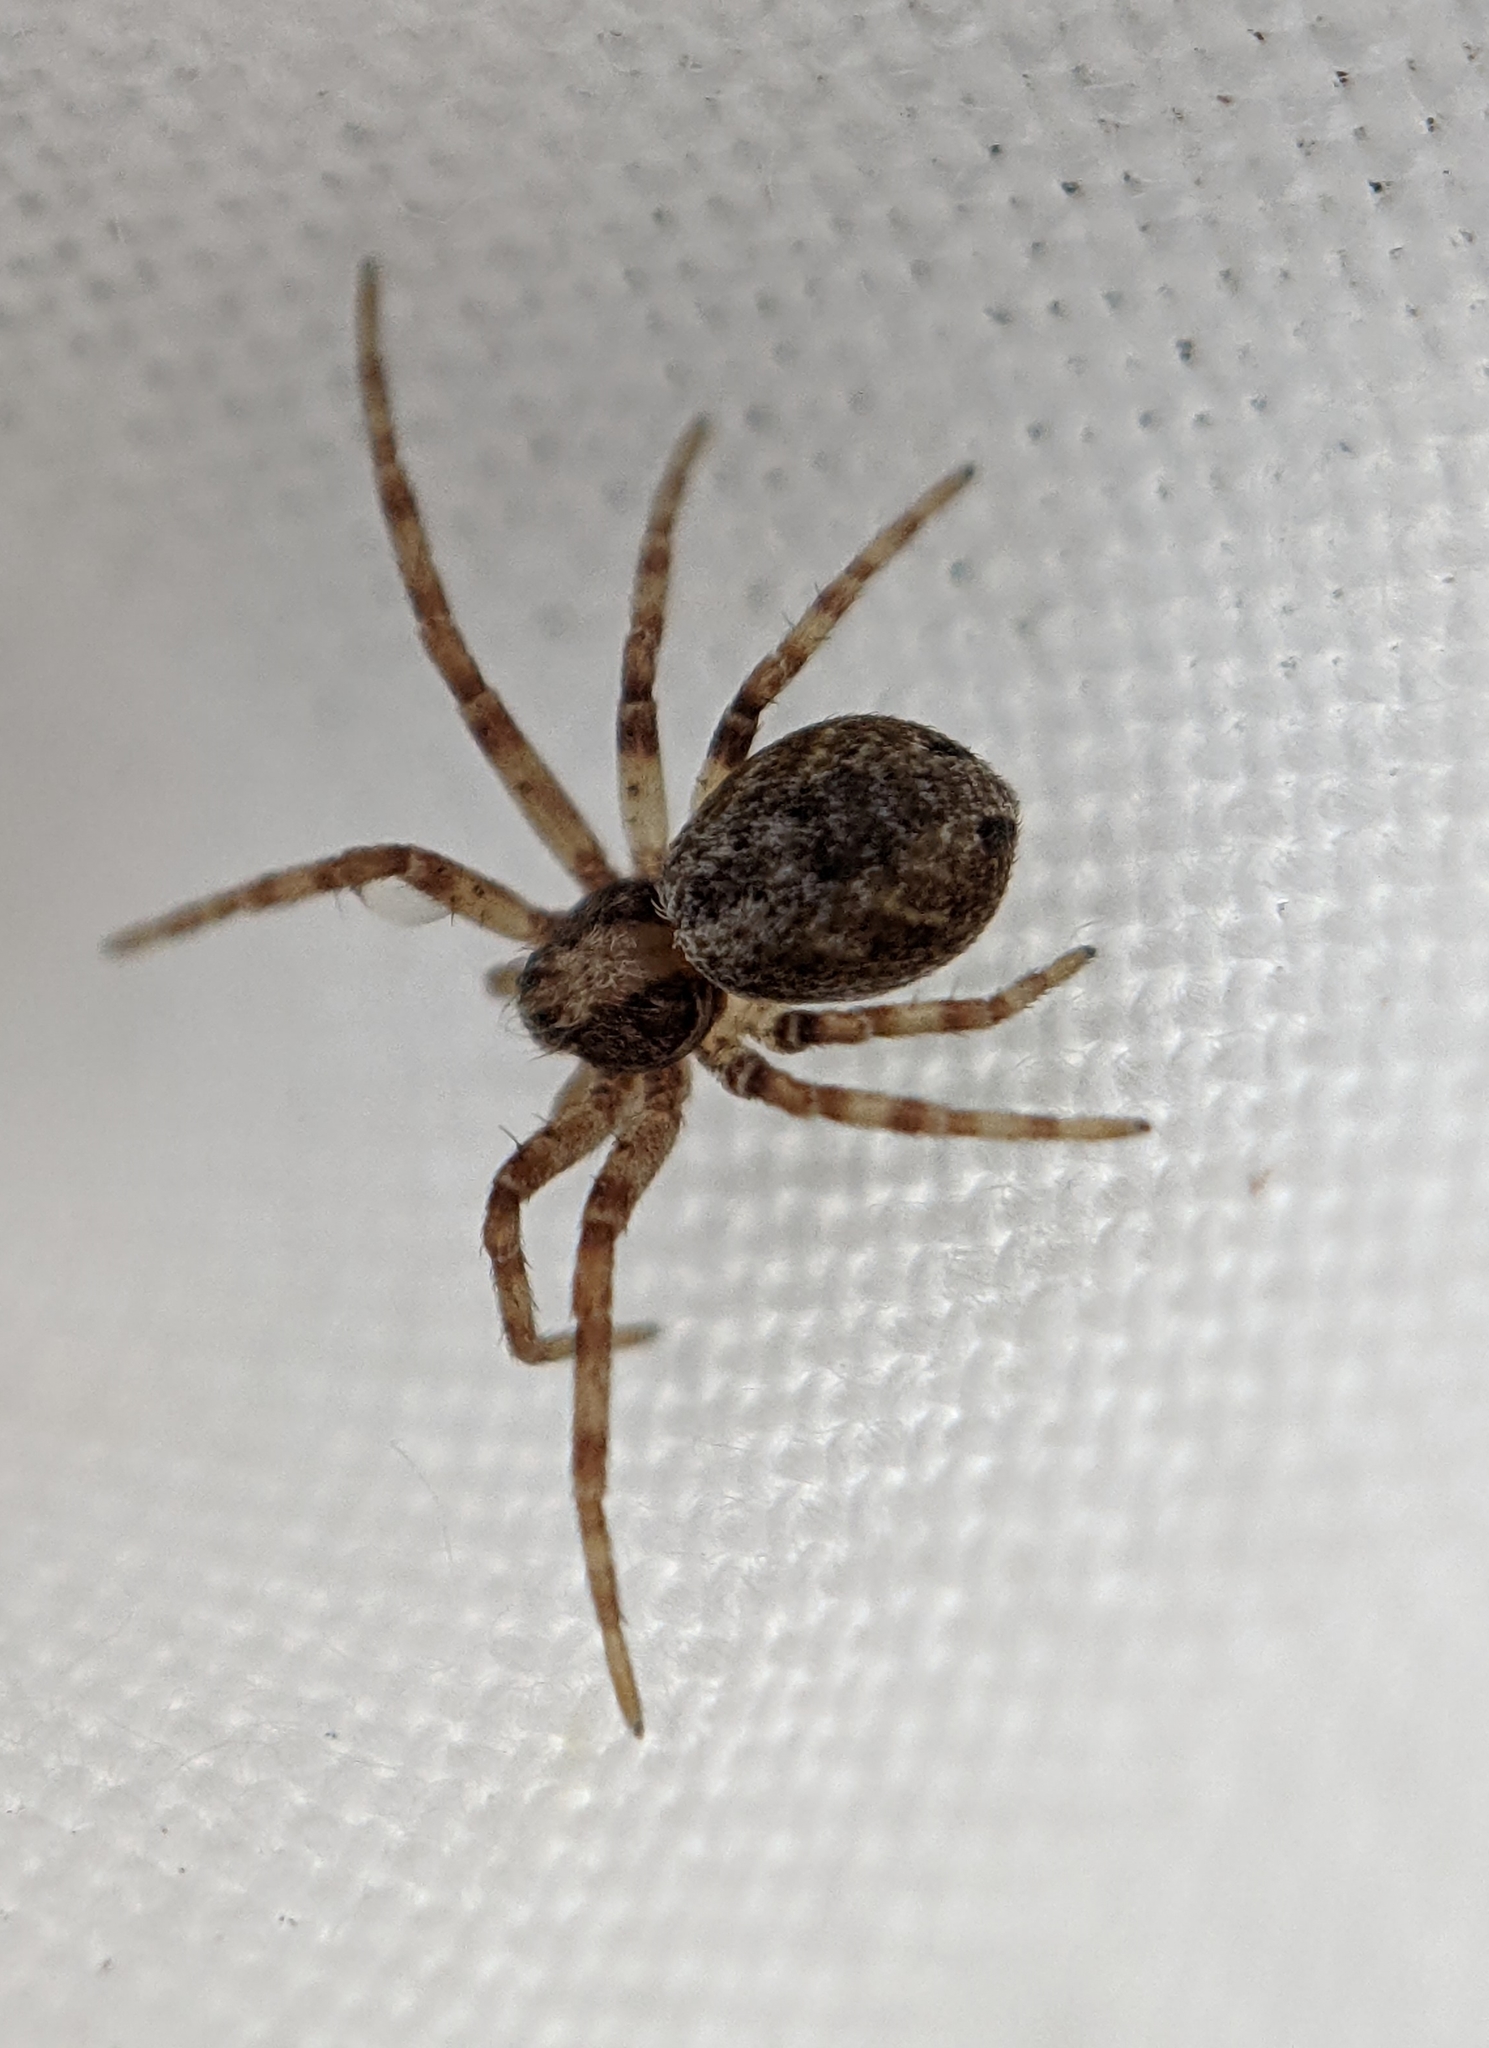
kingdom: Animalia
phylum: Arthropoda
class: Arachnida
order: Araneae
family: Philodromidae
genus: Philodromus
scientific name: Philodromus
